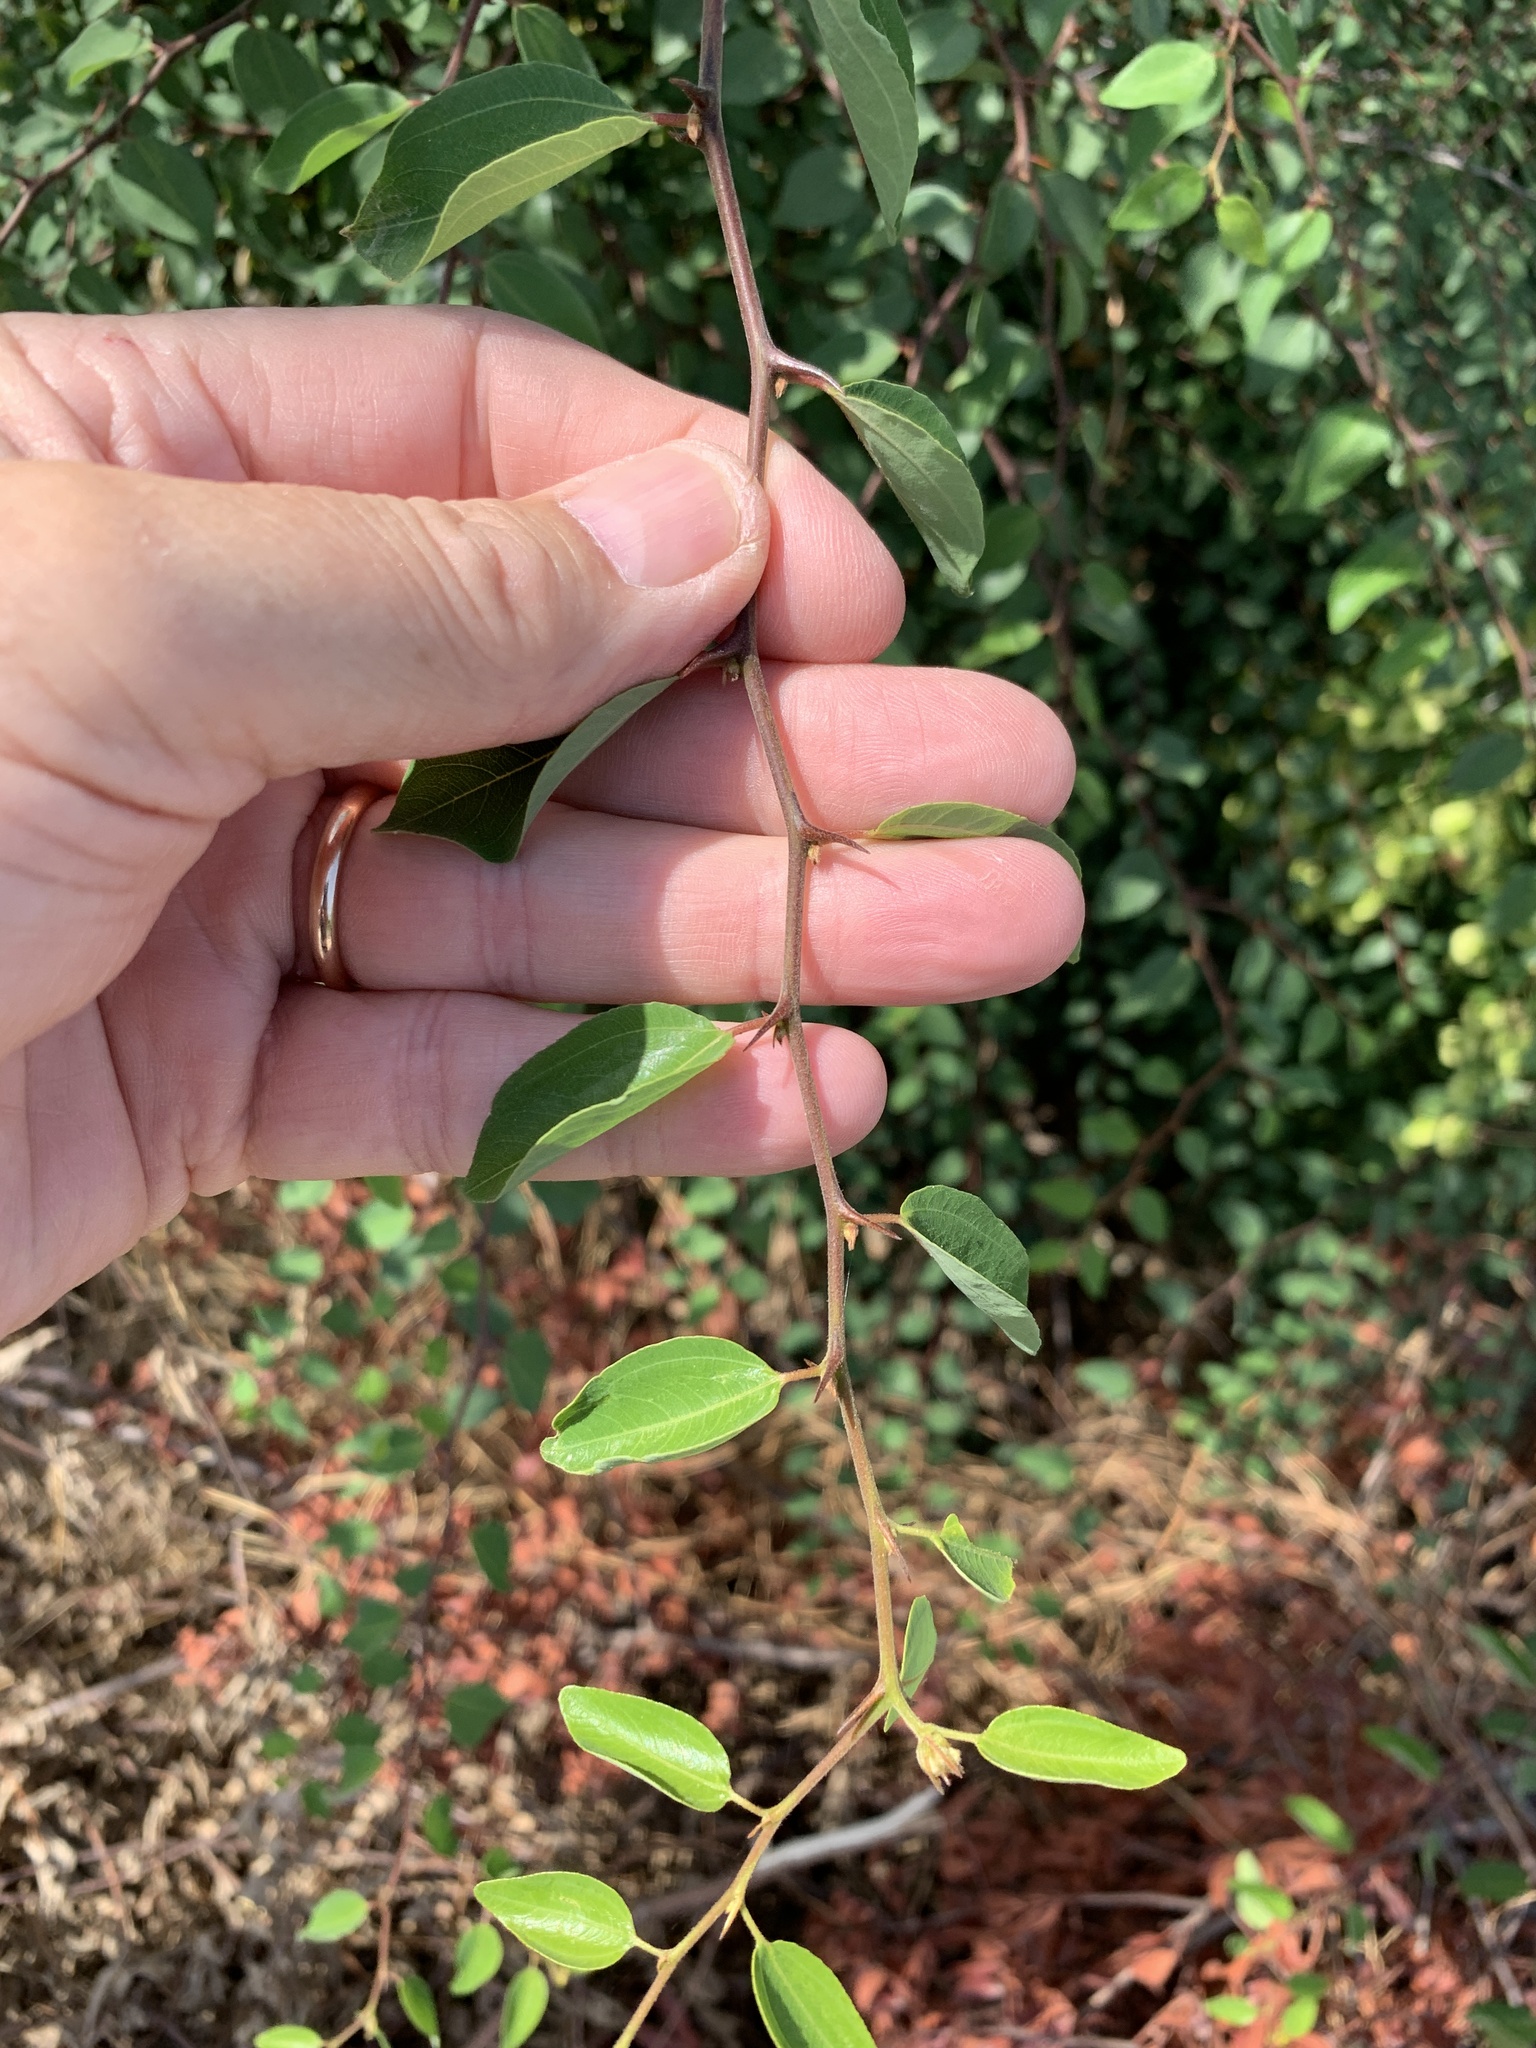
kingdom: Plantae
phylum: Tracheophyta
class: Magnoliopsida
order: Rosales
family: Rhamnaceae
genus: Paliurus
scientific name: Paliurus spina-christi
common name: Jeruselem thorn
